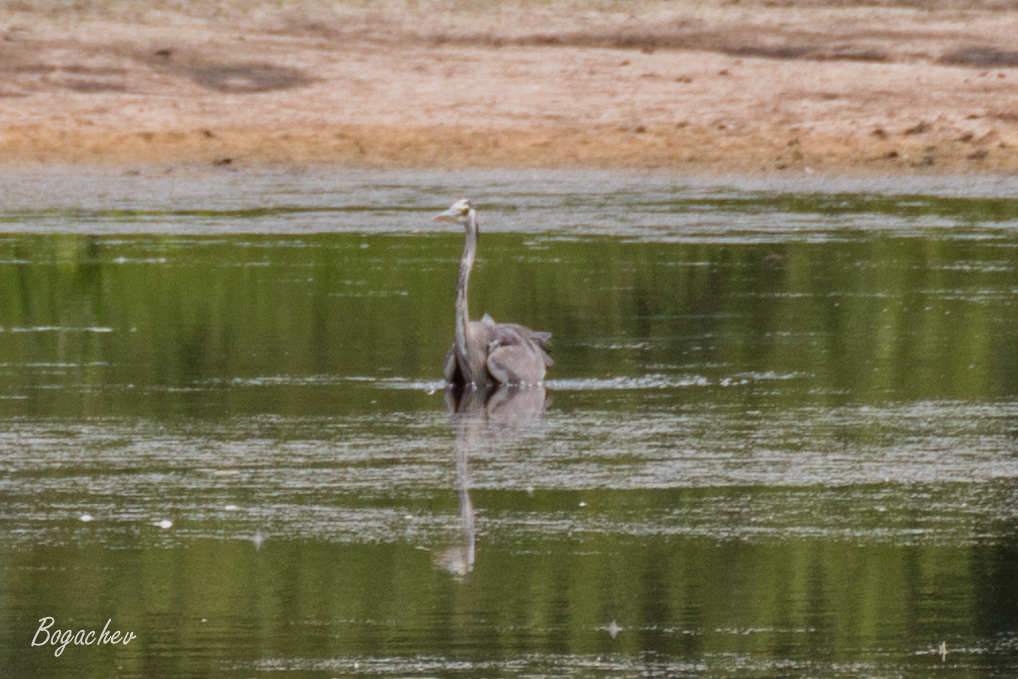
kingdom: Animalia
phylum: Chordata
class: Aves
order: Pelecaniformes
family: Ardeidae
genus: Ardea
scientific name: Ardea cinerea
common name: Grey heron
